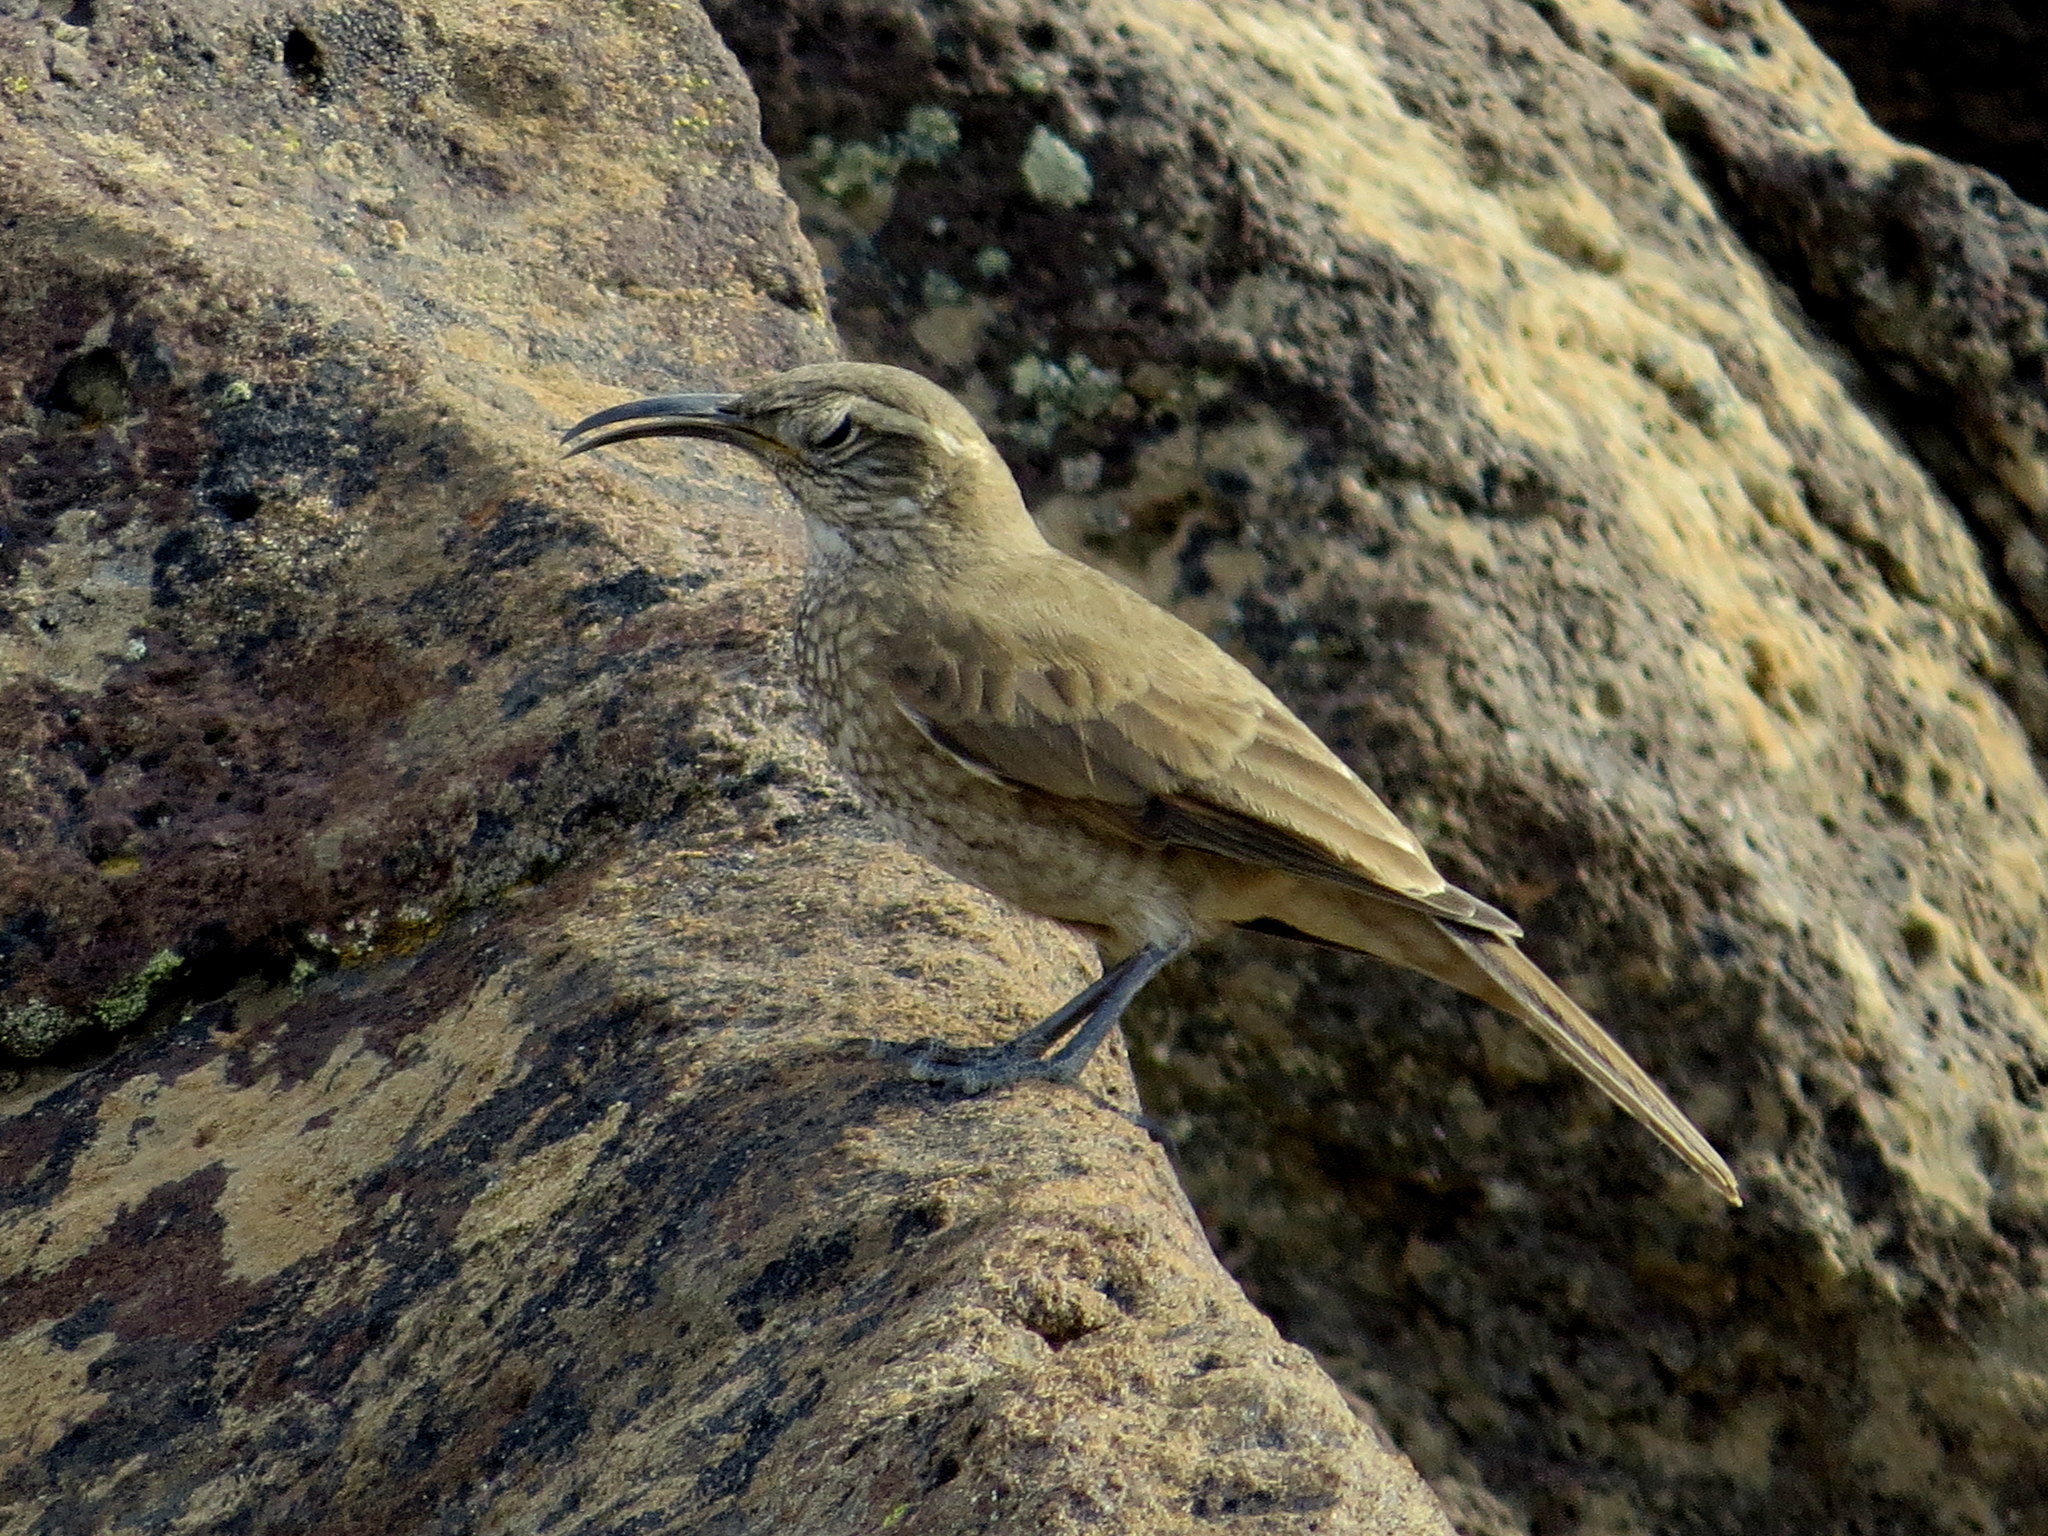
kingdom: Animalia
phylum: Chordata
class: Aves
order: Passeriformes
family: Furnariidae
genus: Upucerthia
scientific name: Upucerthia dumetaria
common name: Scale-throated earthcreeper
